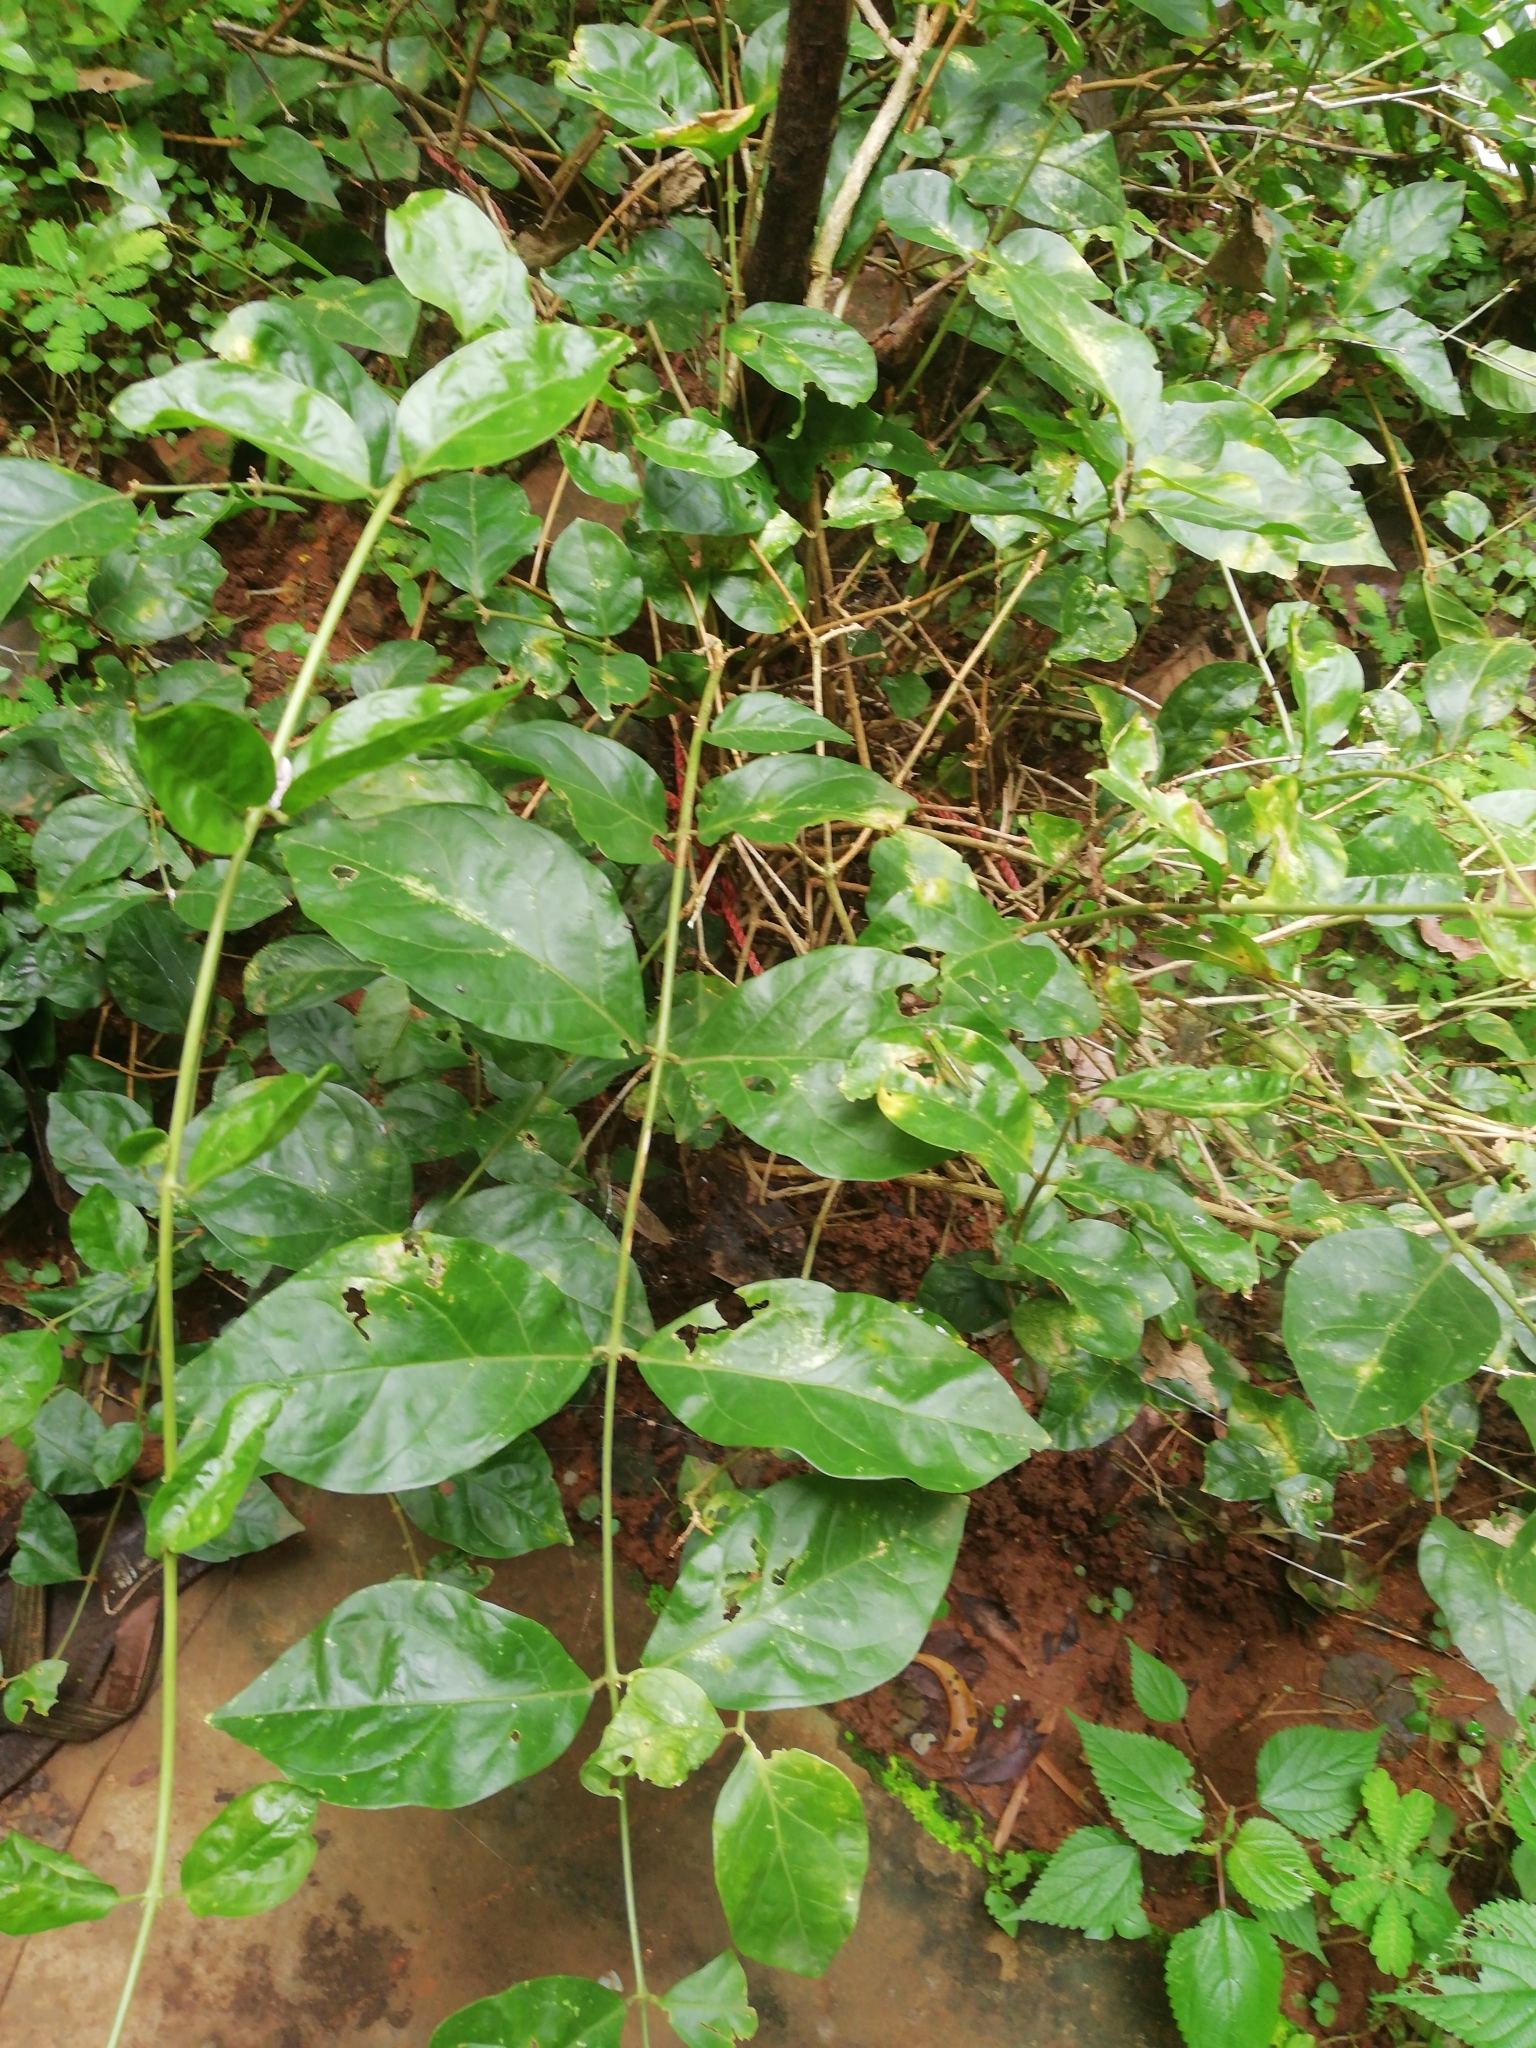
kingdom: Plantae
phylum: Tracheophyta
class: Magnoliopsida
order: Lamiales
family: Oleaceae
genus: Jasminum
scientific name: Jasminum sambac
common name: Arabian jasmine
